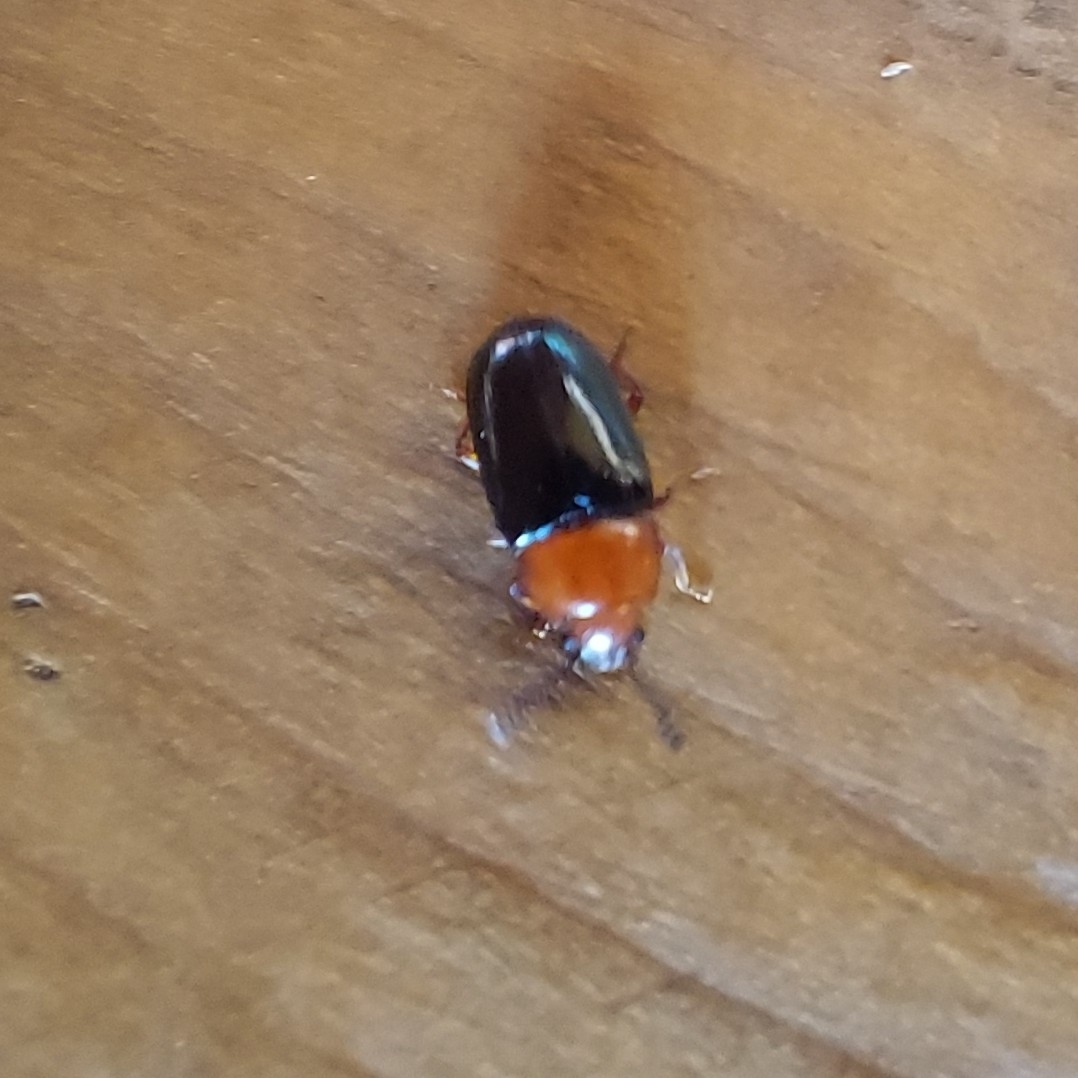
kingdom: Animalia
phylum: Arthropoda
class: Insecta
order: Coleoptera
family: Erotylidae
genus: Triplax
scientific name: Triplax russica
